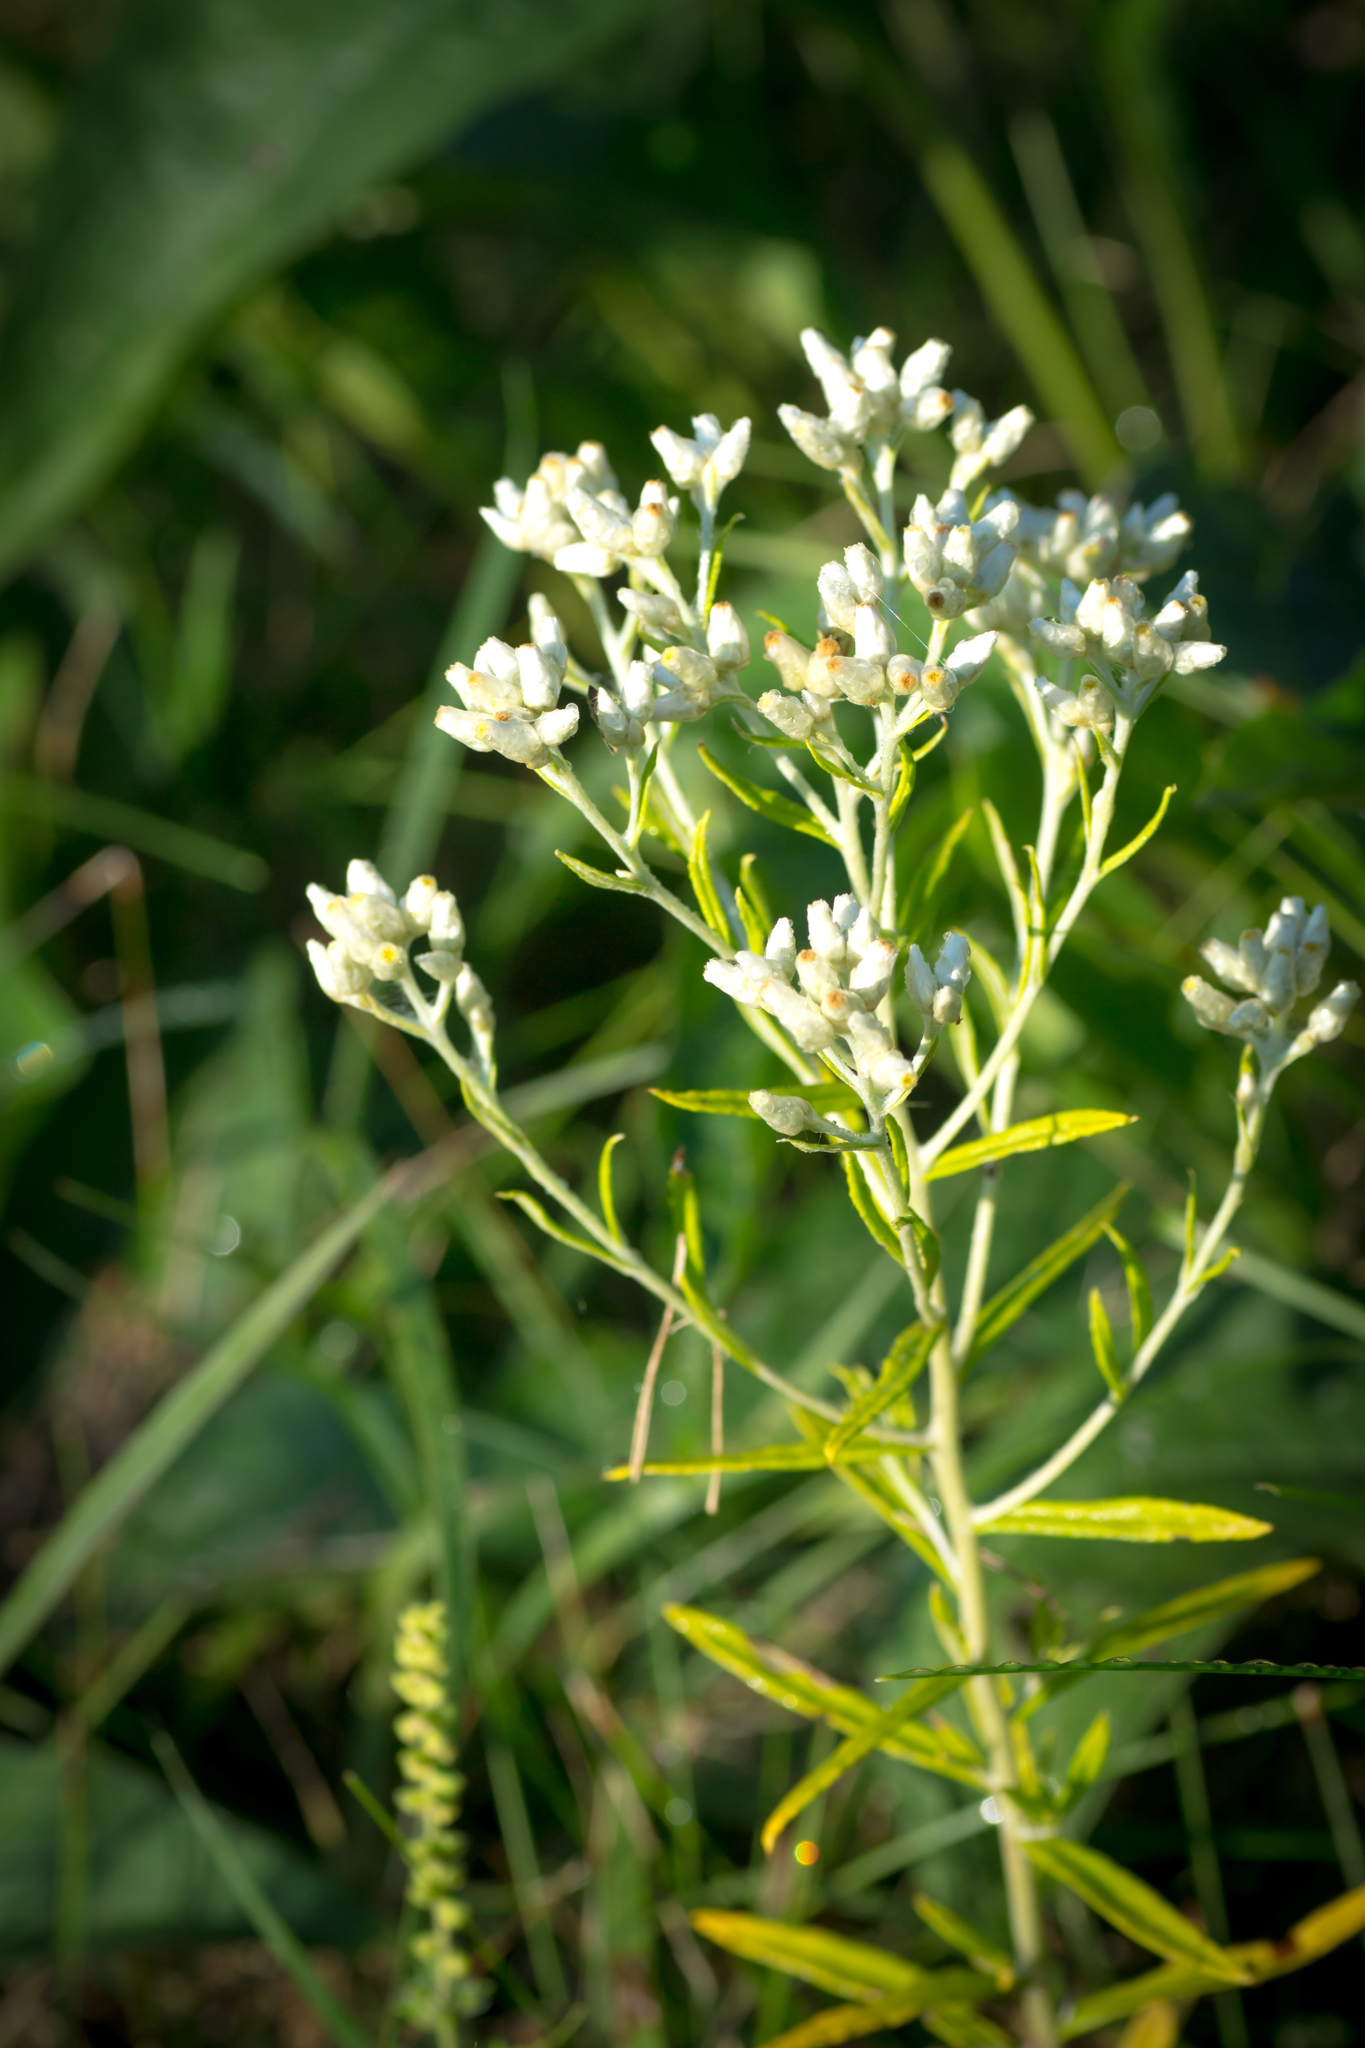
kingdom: Plantae
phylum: Tracheophyta
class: Magnoliopsida
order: Asterales
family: Asteraceae
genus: Pseudognaphalium
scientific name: Pseudognaphalium obtusifolium
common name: Eastern rabbit-tobacco
